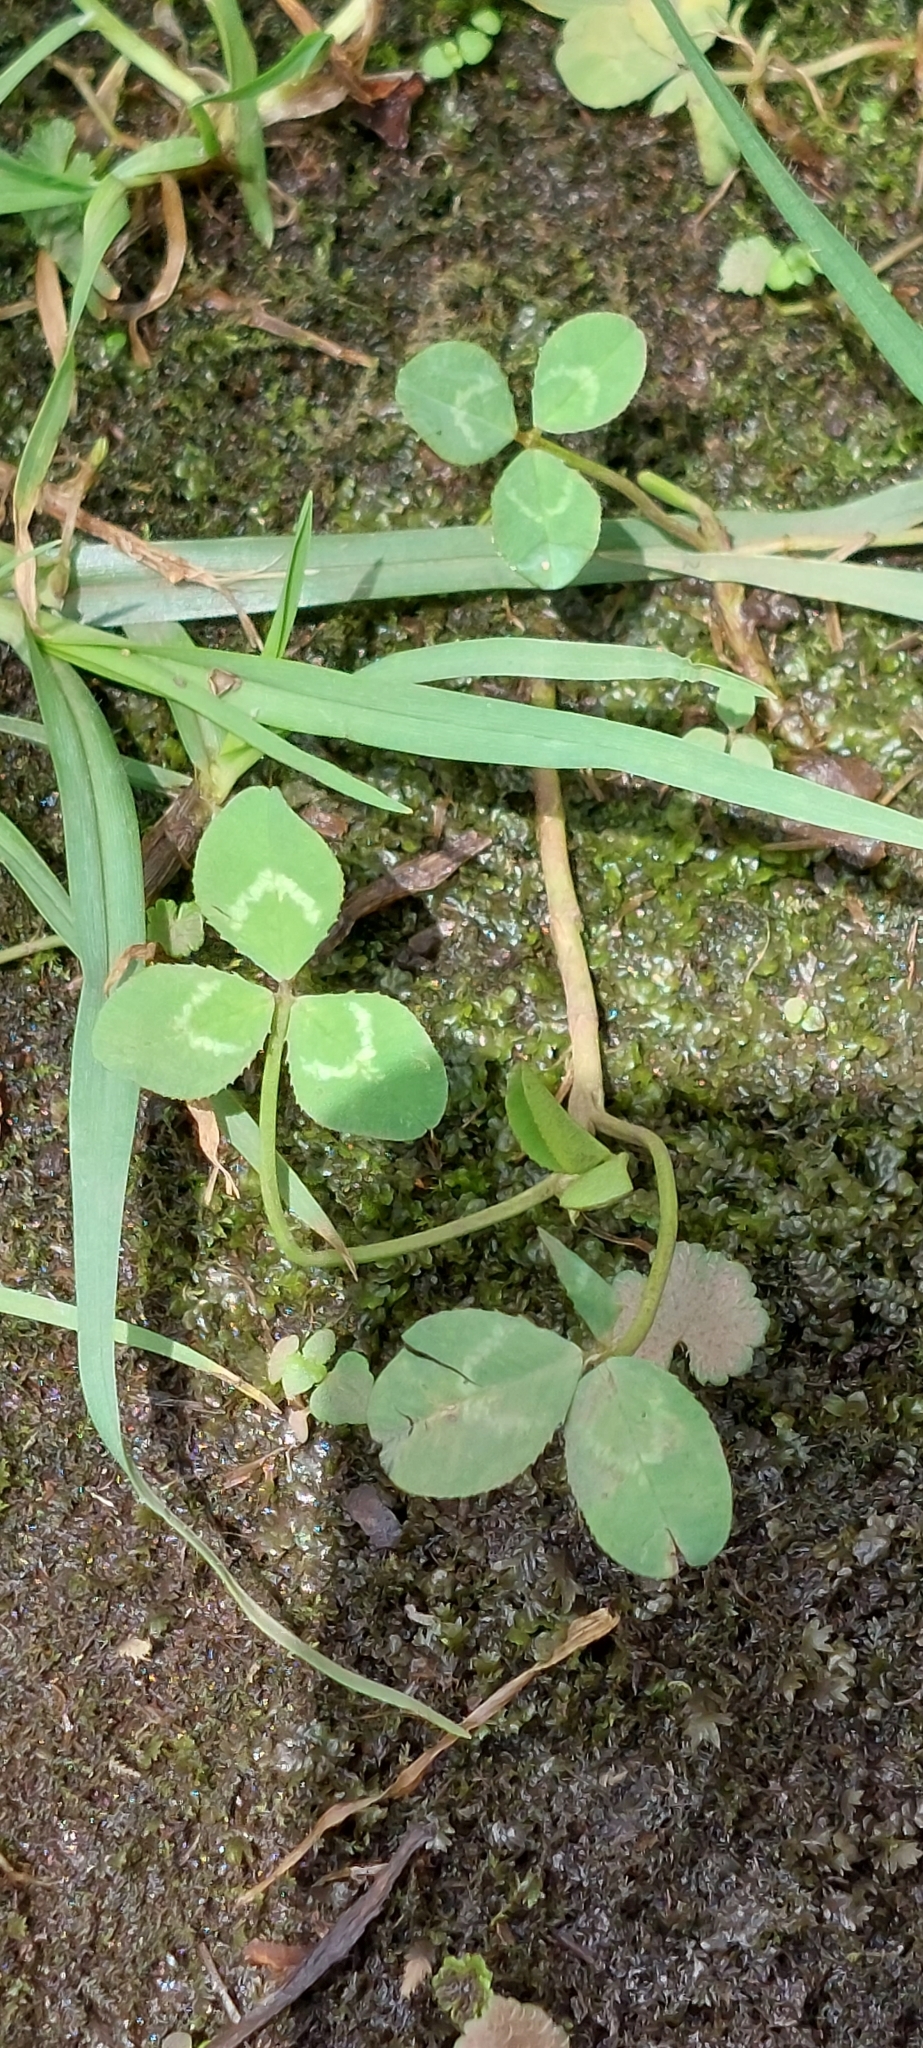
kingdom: Plantae
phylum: Tracheophyta
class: Magnoliopsida
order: Fabales
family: Fabaceae
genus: Trifolium
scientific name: Trifolium repens
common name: White clover
